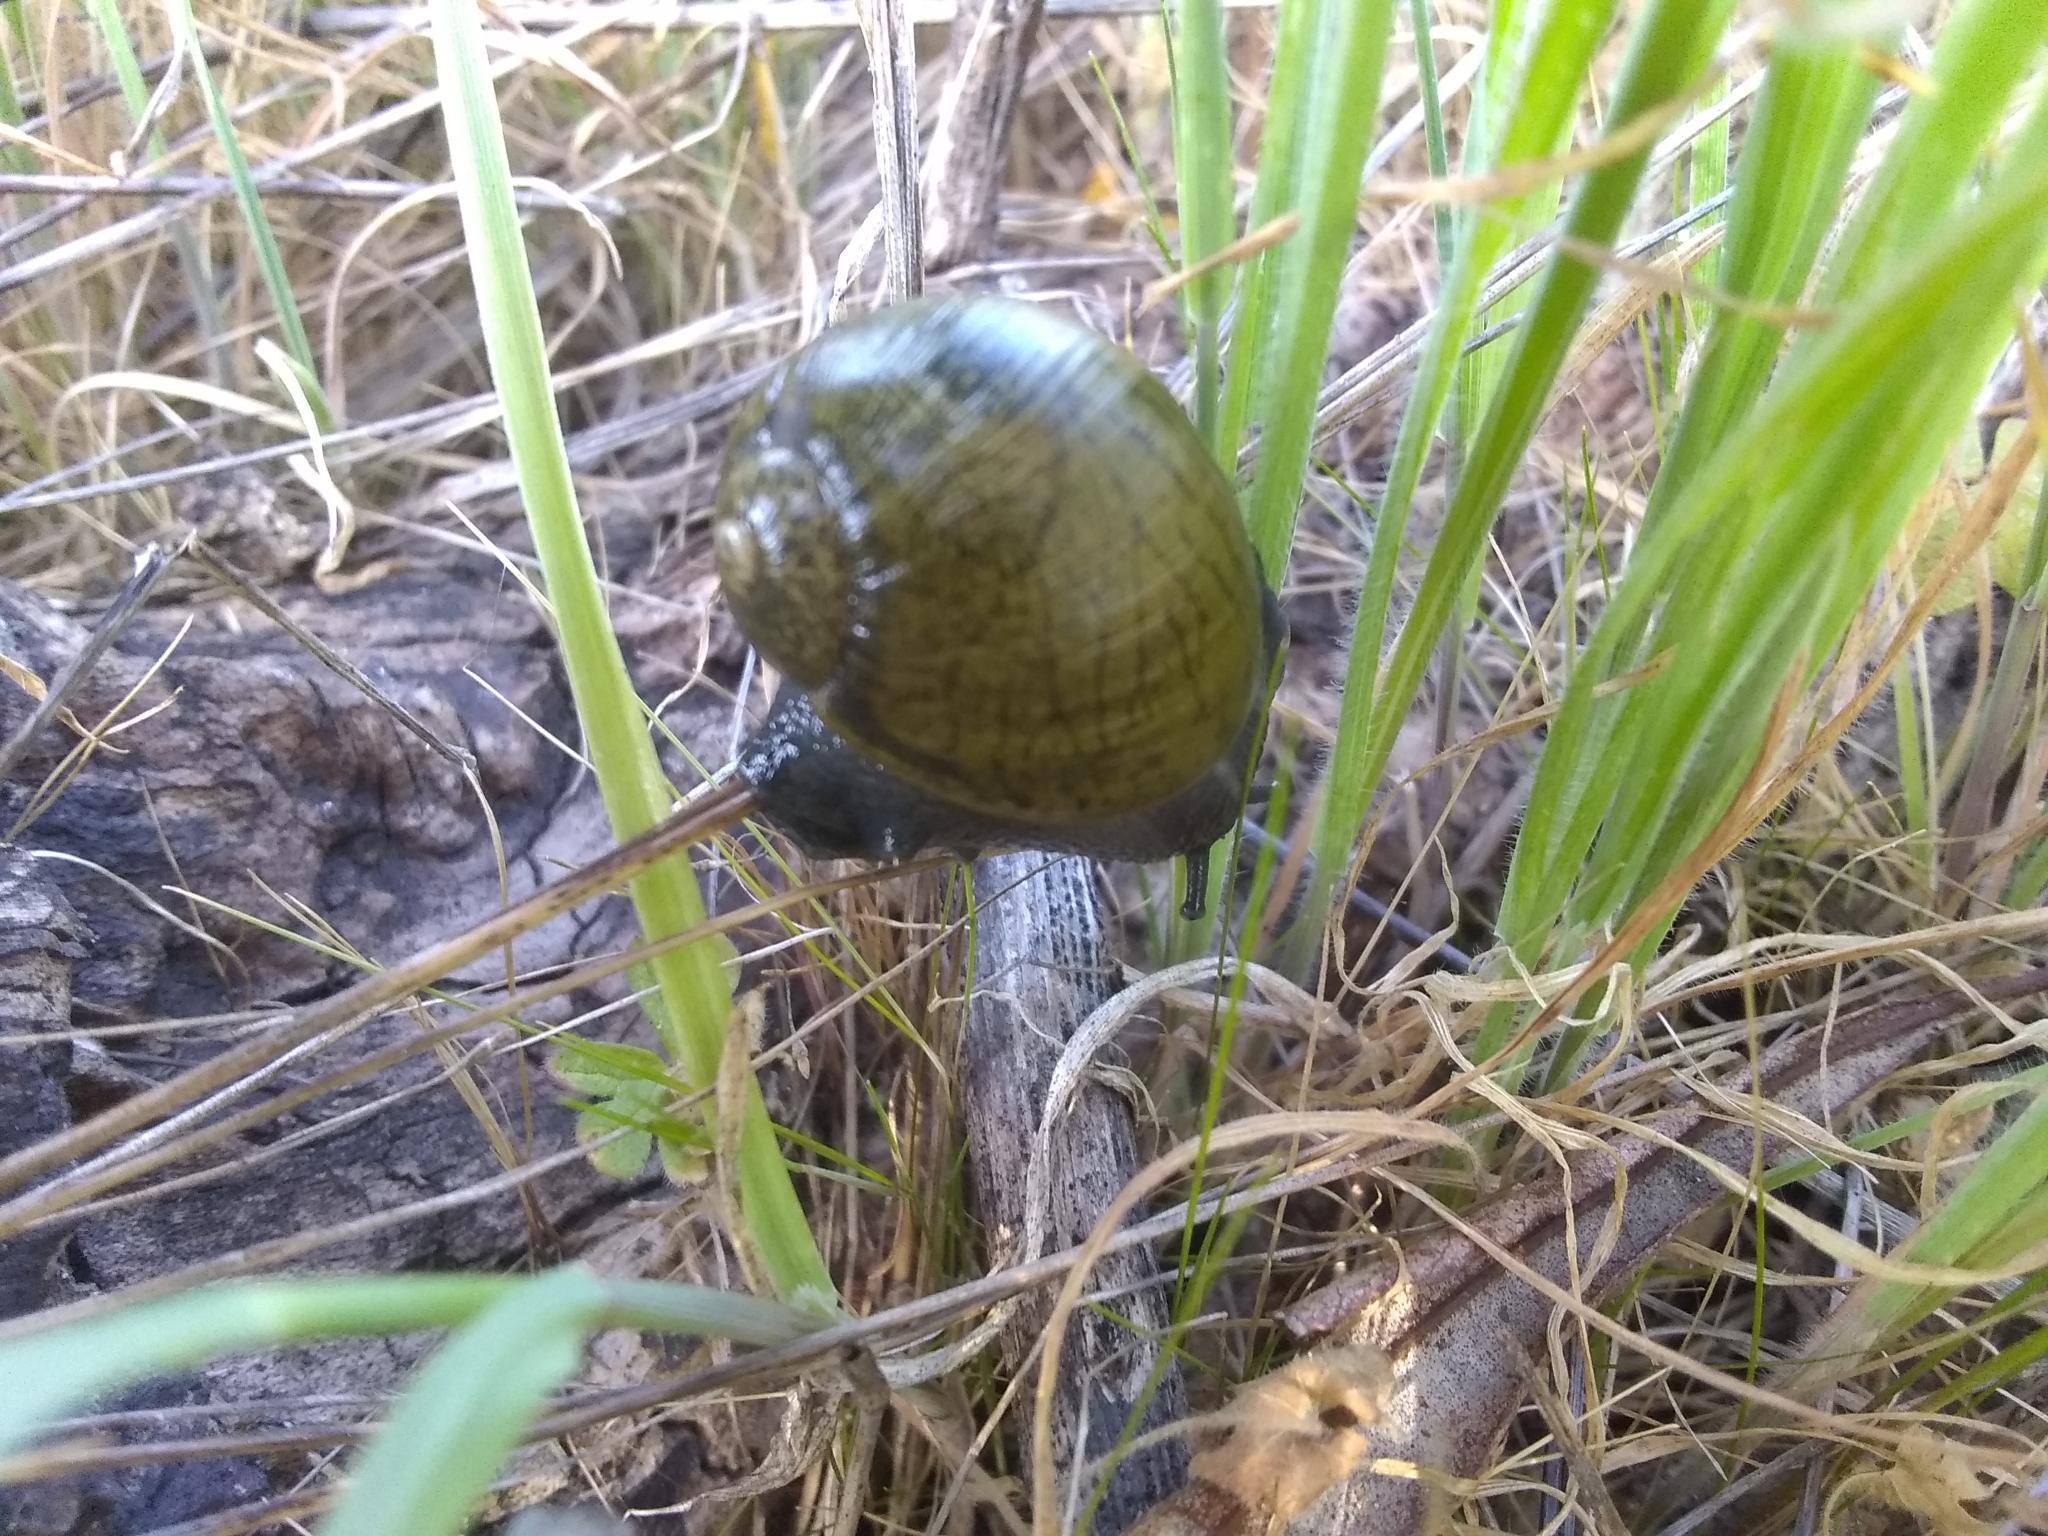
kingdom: Animalia
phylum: Mollusca
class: Gastropoda
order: Stylommatophora
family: Helicidae
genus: Cantareus
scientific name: Cantareus apertus
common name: Green gardensnail
